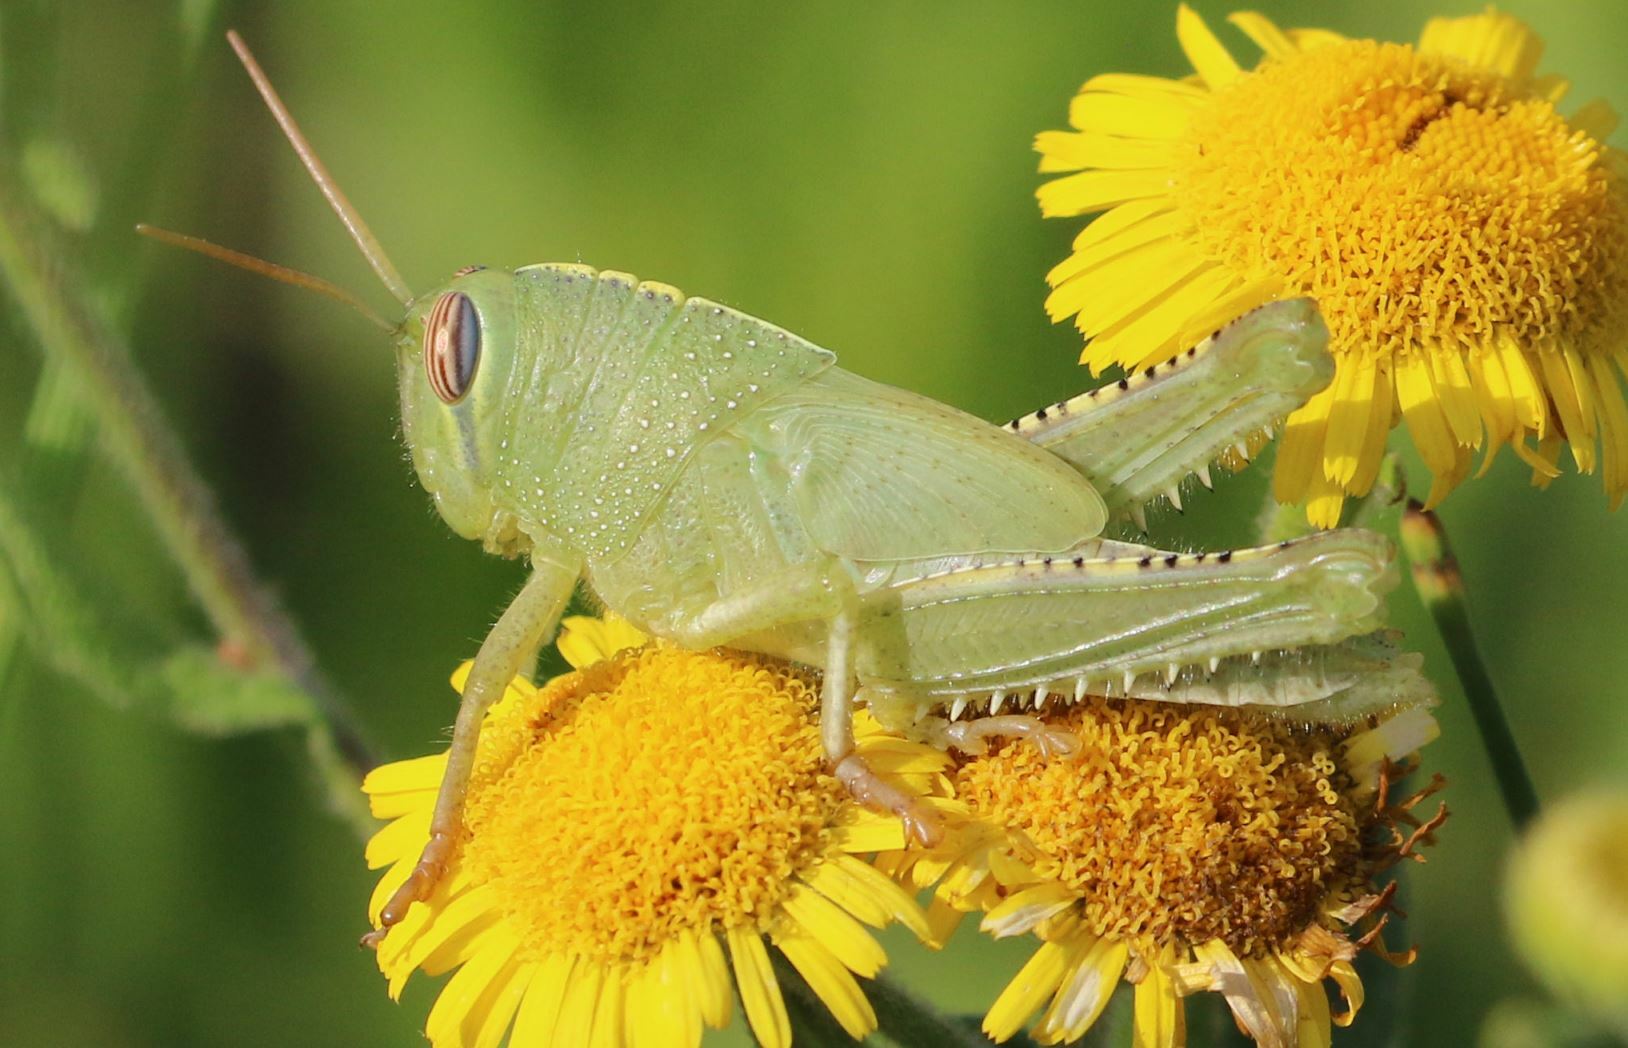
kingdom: Animalia
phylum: Arthropoda
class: Insecta
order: Orthoptera
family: Acrididae
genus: Anacridium
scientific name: Anacridium aegyptium
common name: Egyptian grasshopper
